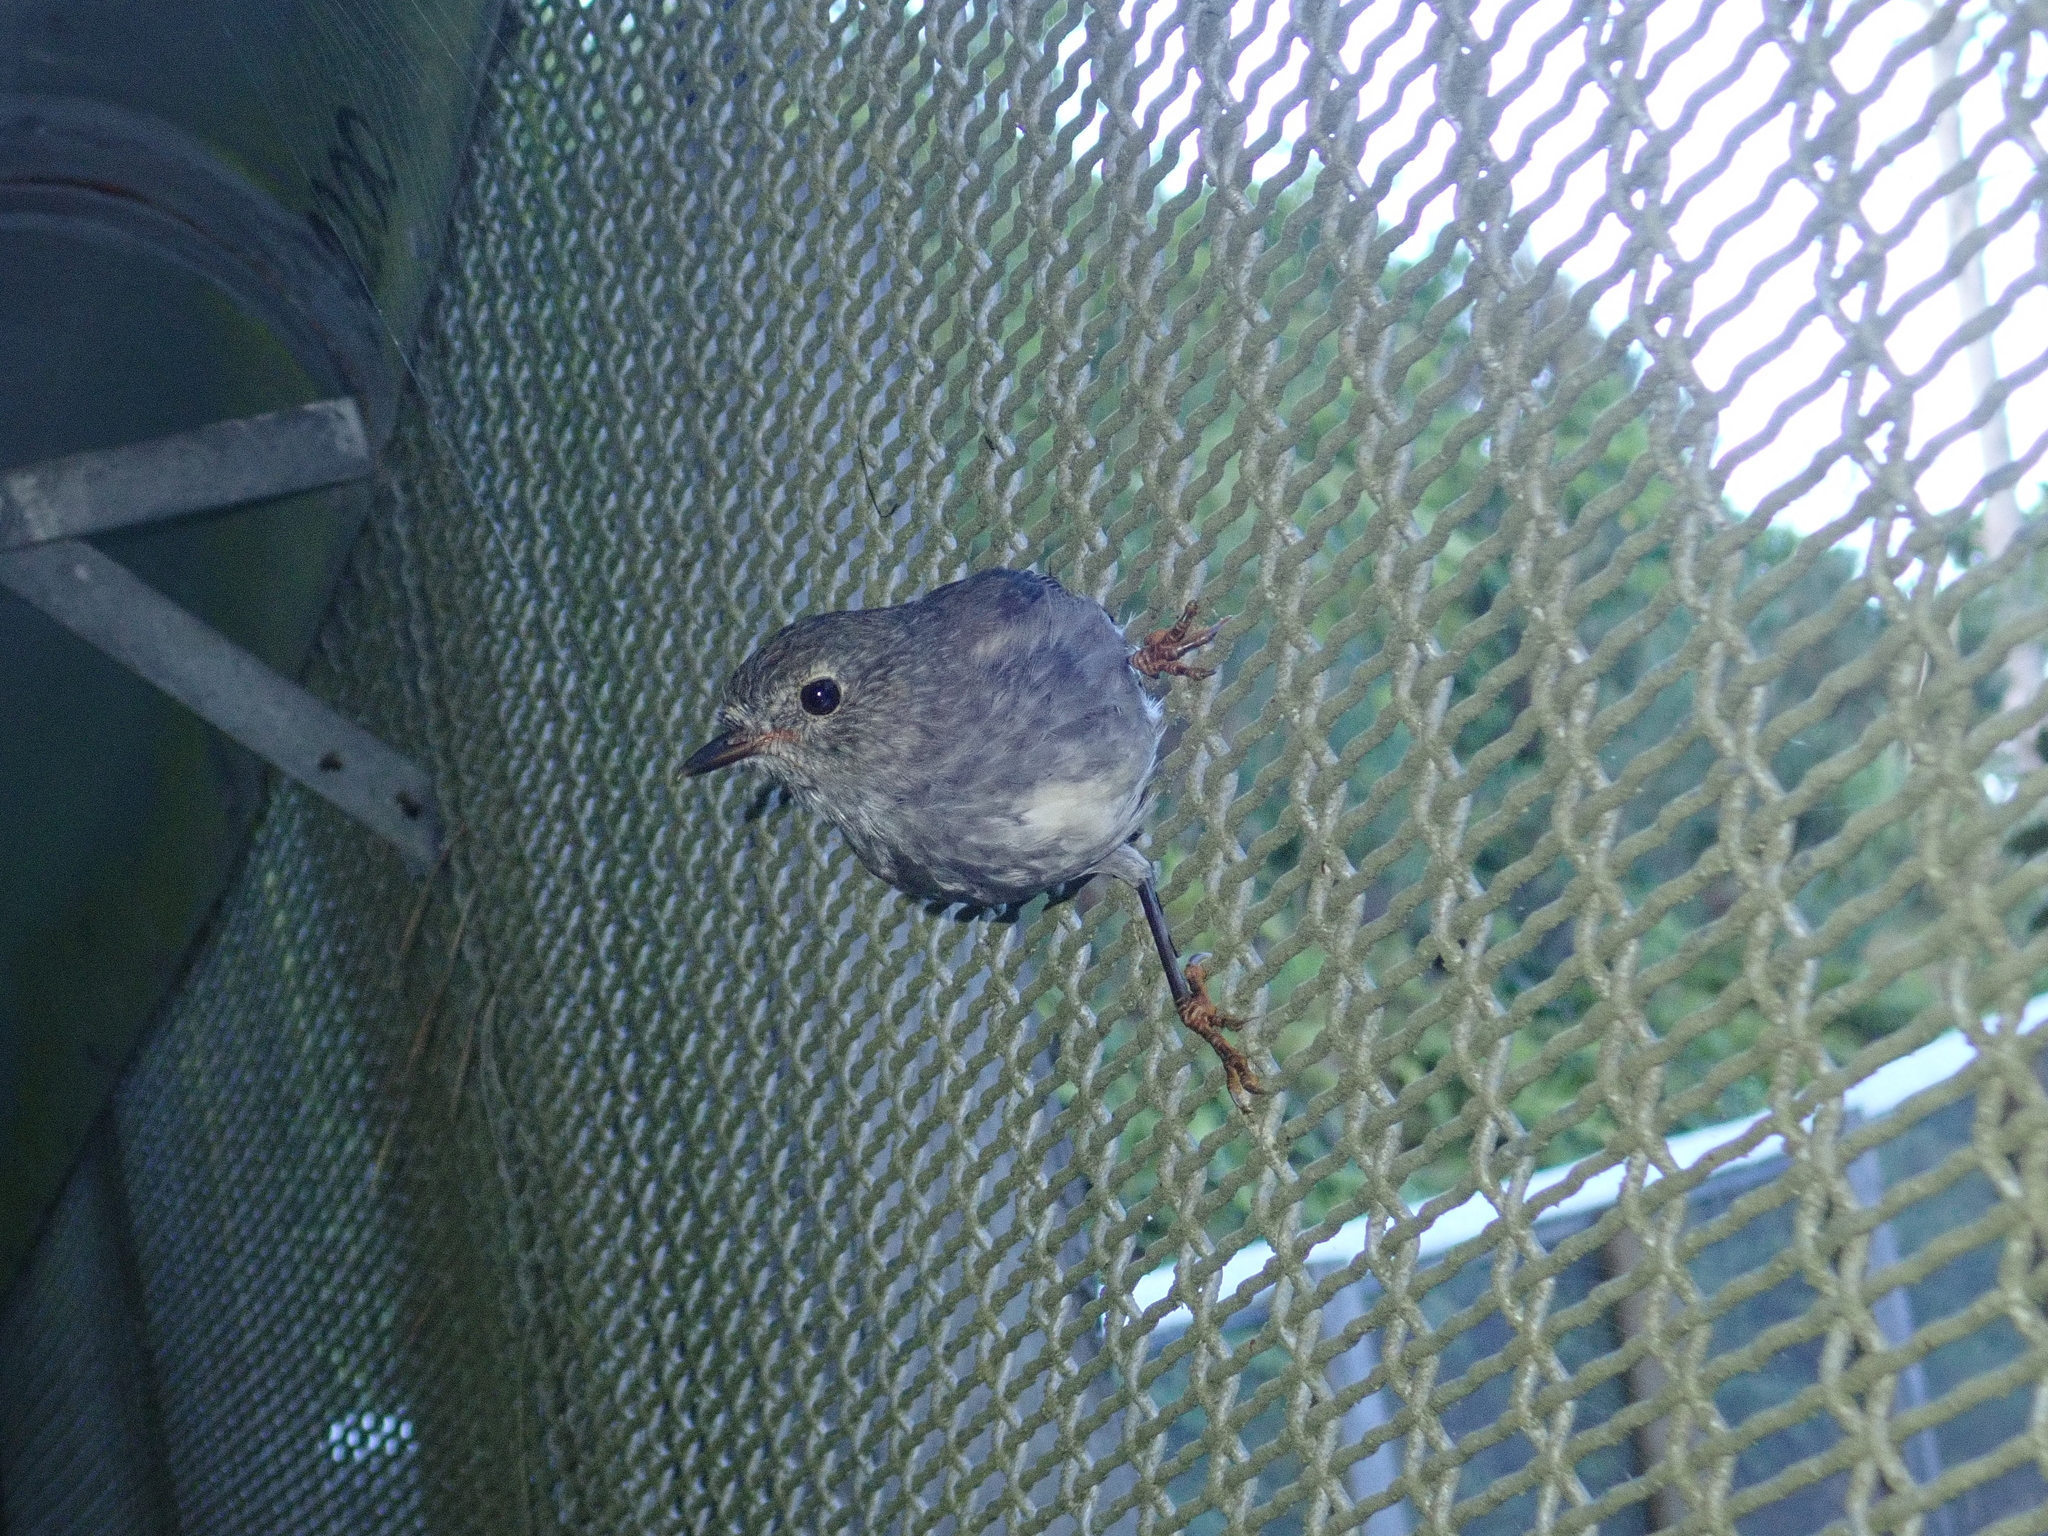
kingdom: Animalia
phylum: Chordata
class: Aves
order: Passeriformes
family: Petroicidae
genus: Petroica
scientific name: Petroica australis
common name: New zealand robin
